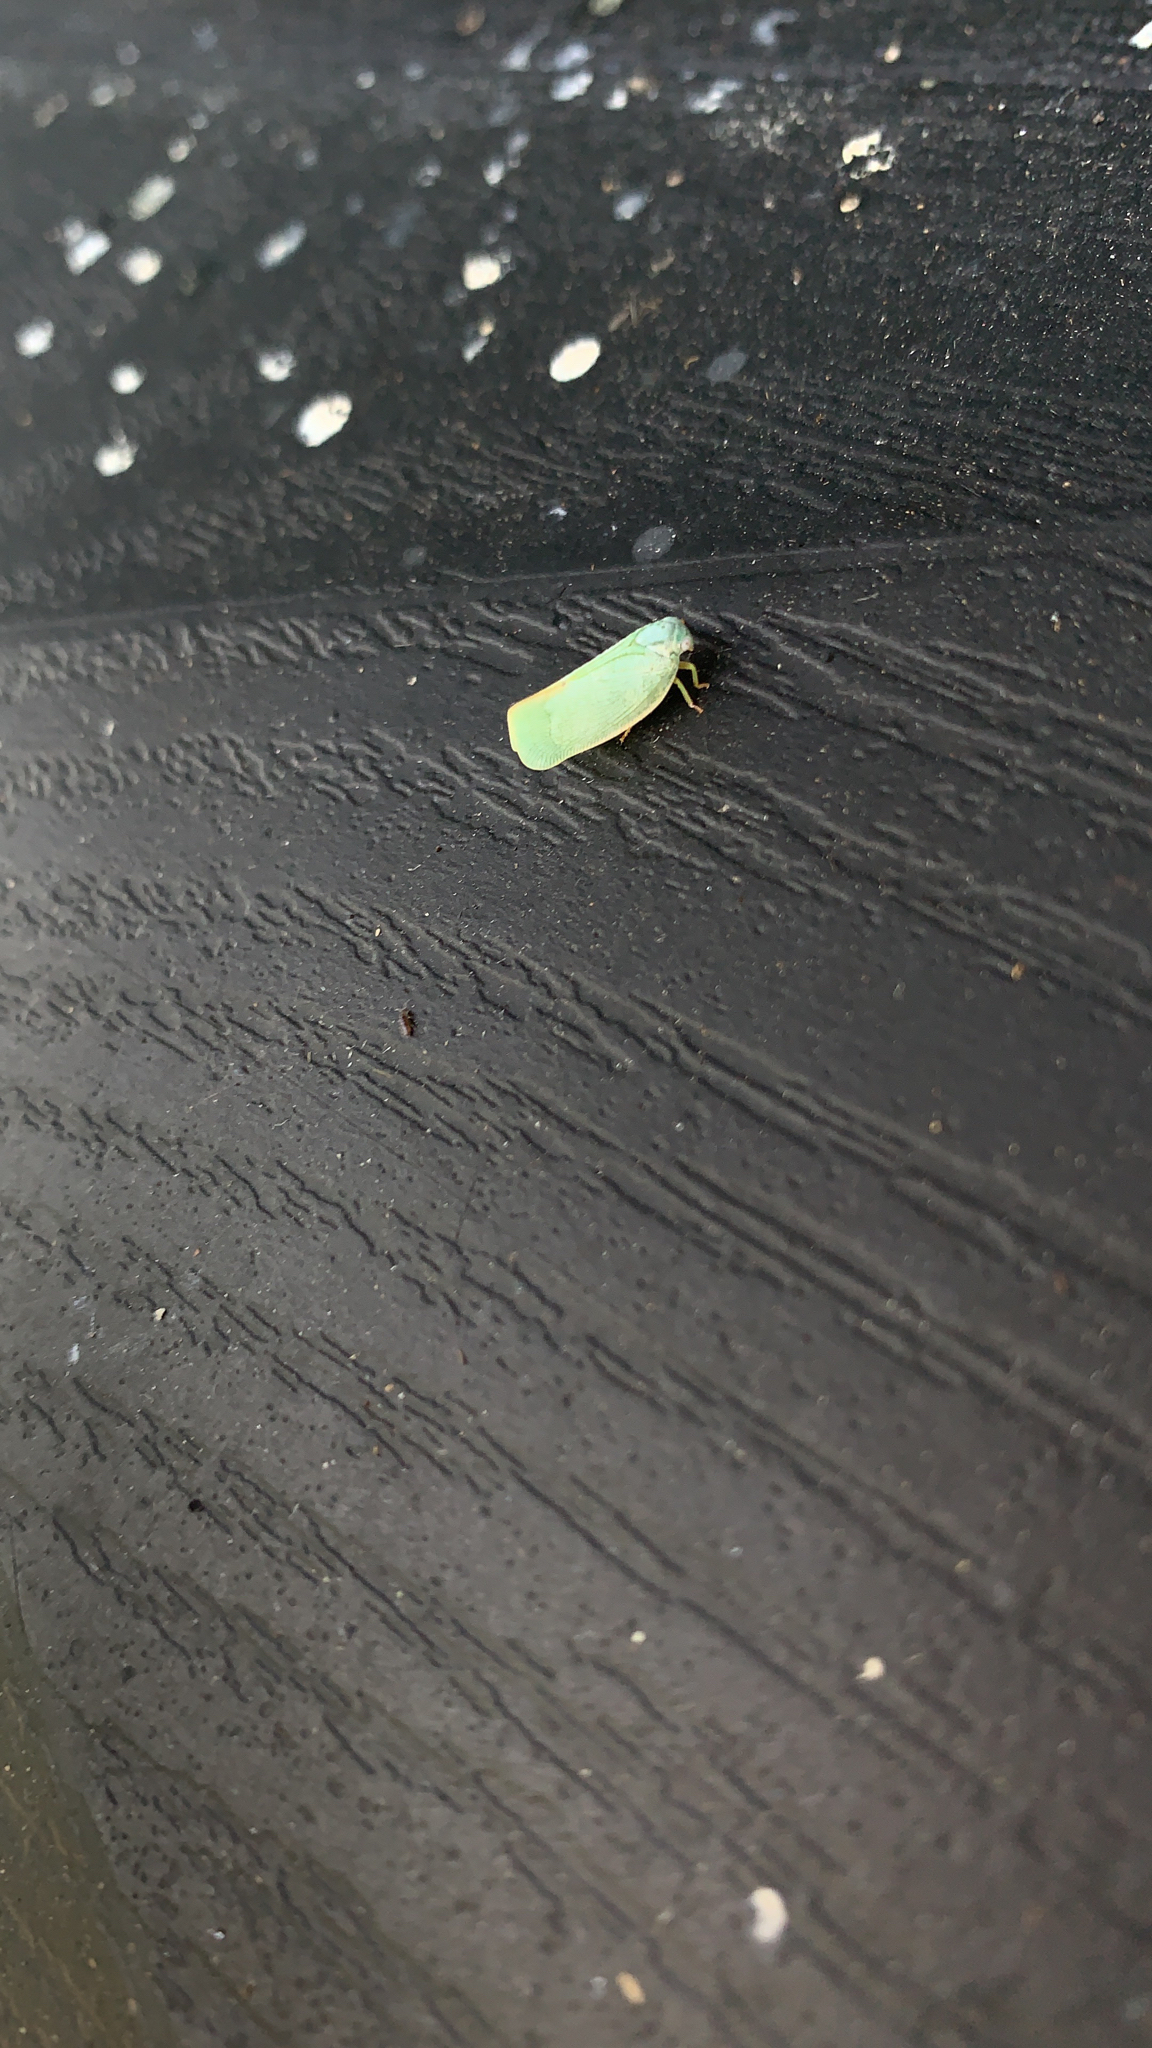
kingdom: Animalia
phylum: Arthropoda
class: Insecta
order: Hemiptera
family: Flatidae
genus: Flatormenis
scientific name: Flatormenis proxima
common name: Northern flatid planthopper
